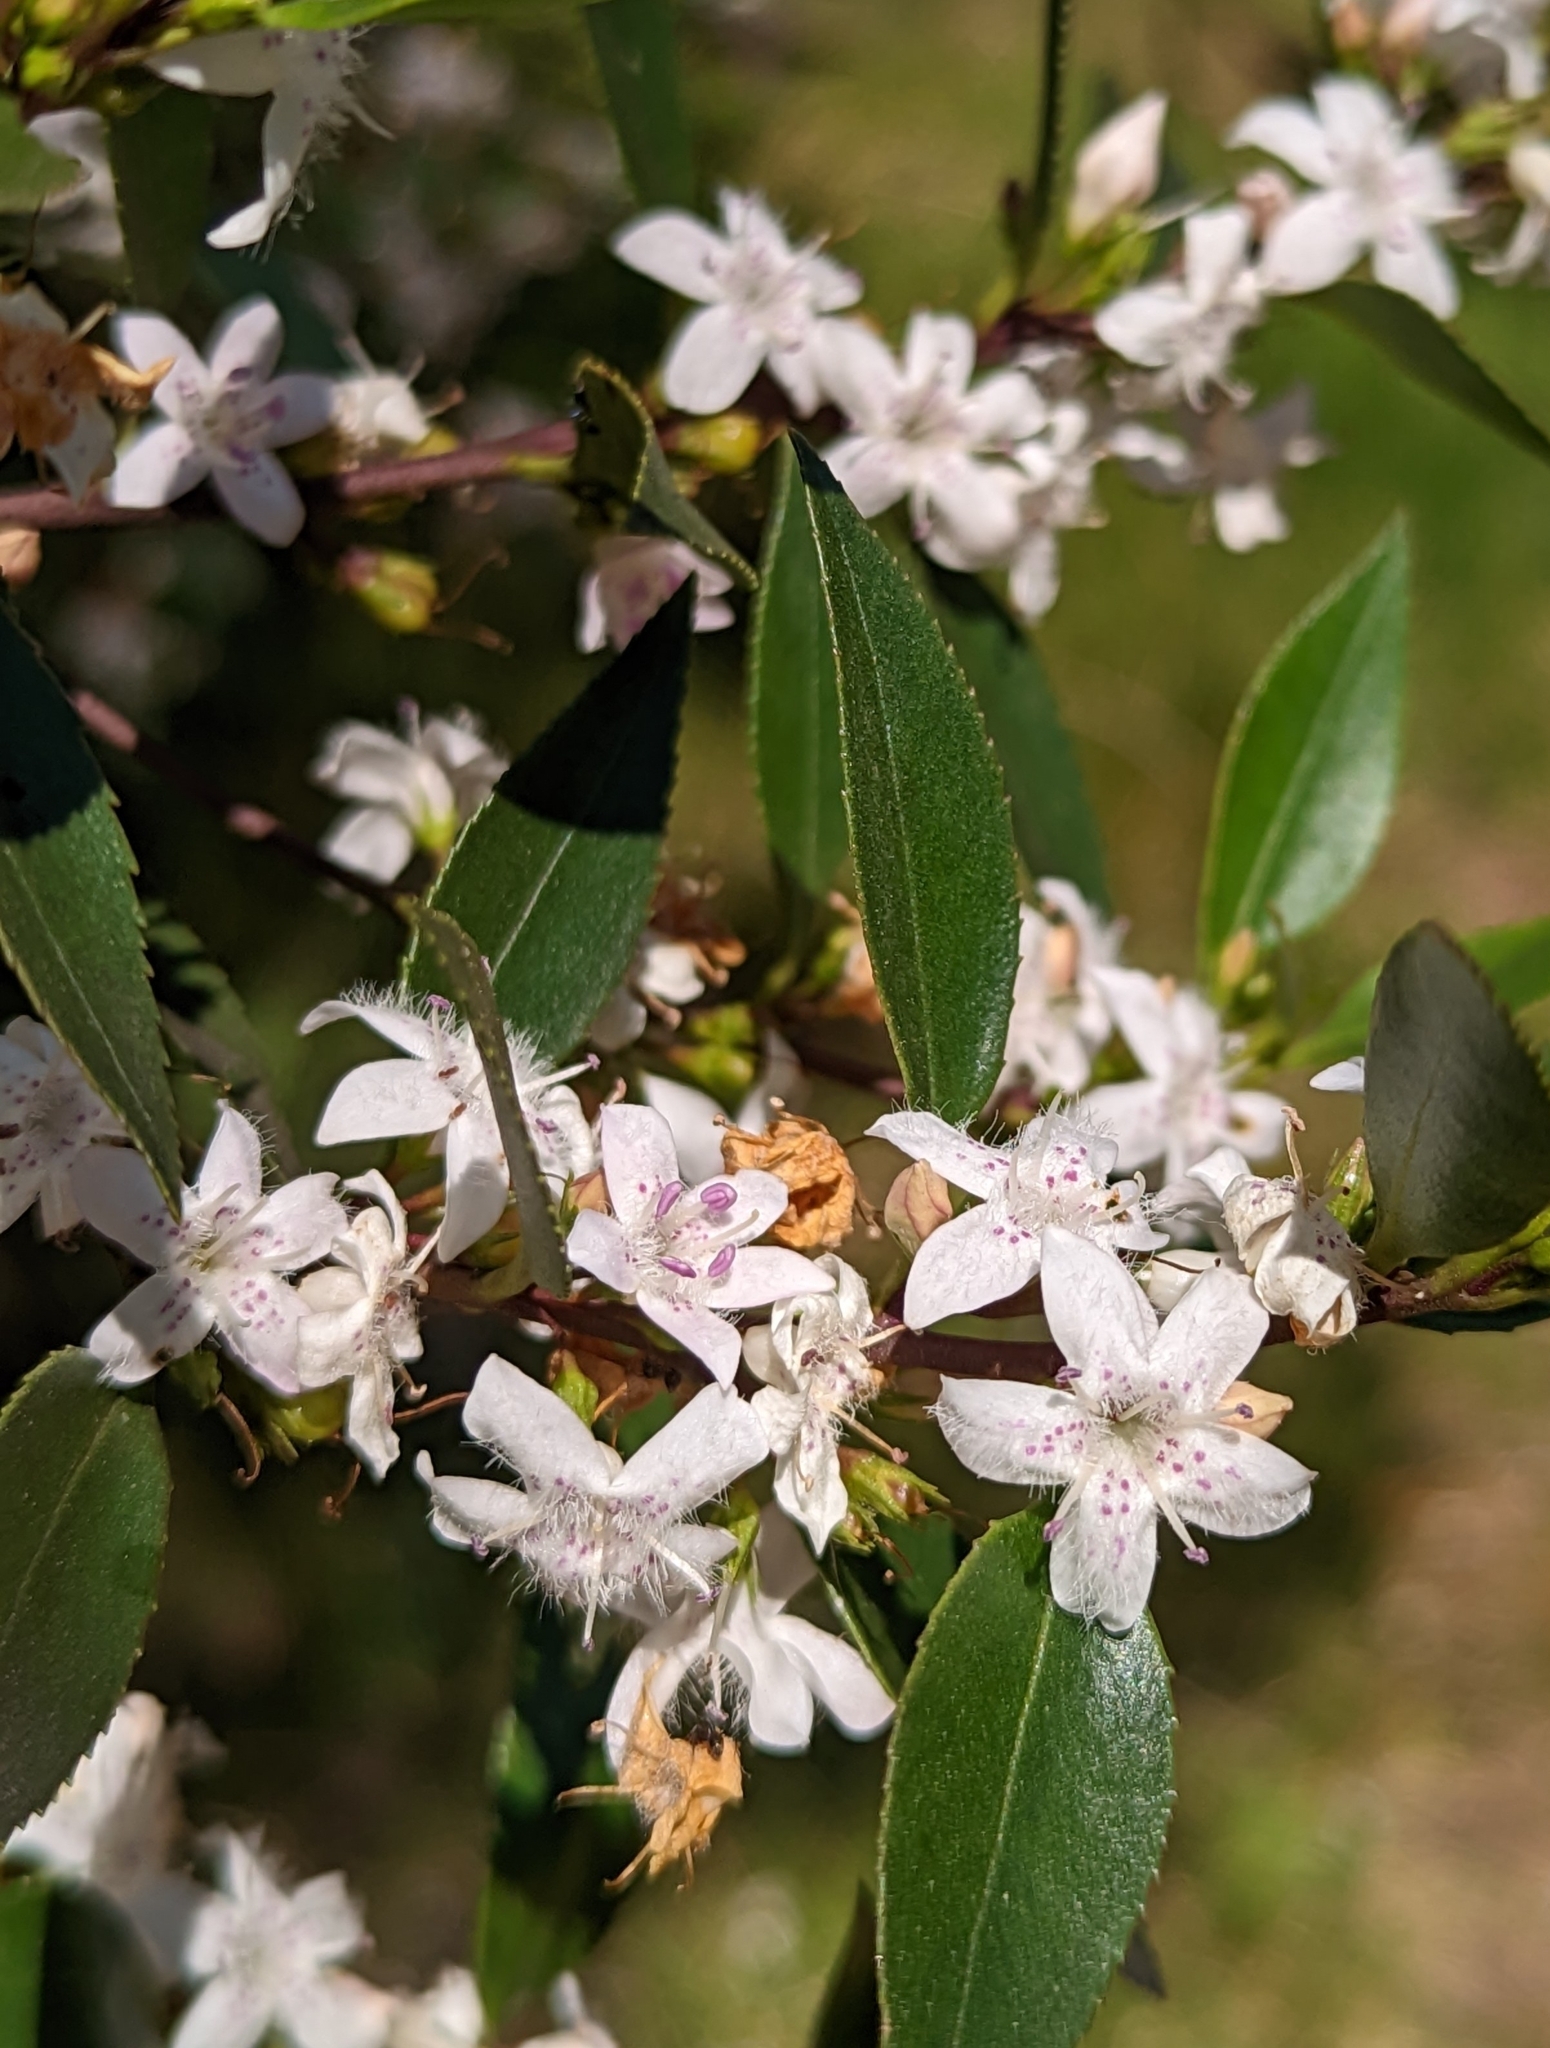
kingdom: Plantae
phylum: Tracheophyta
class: Magnoliopsida
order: Lamiales
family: Scrophulariaceae
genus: Myoporum
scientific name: Myoporum petiolatum
